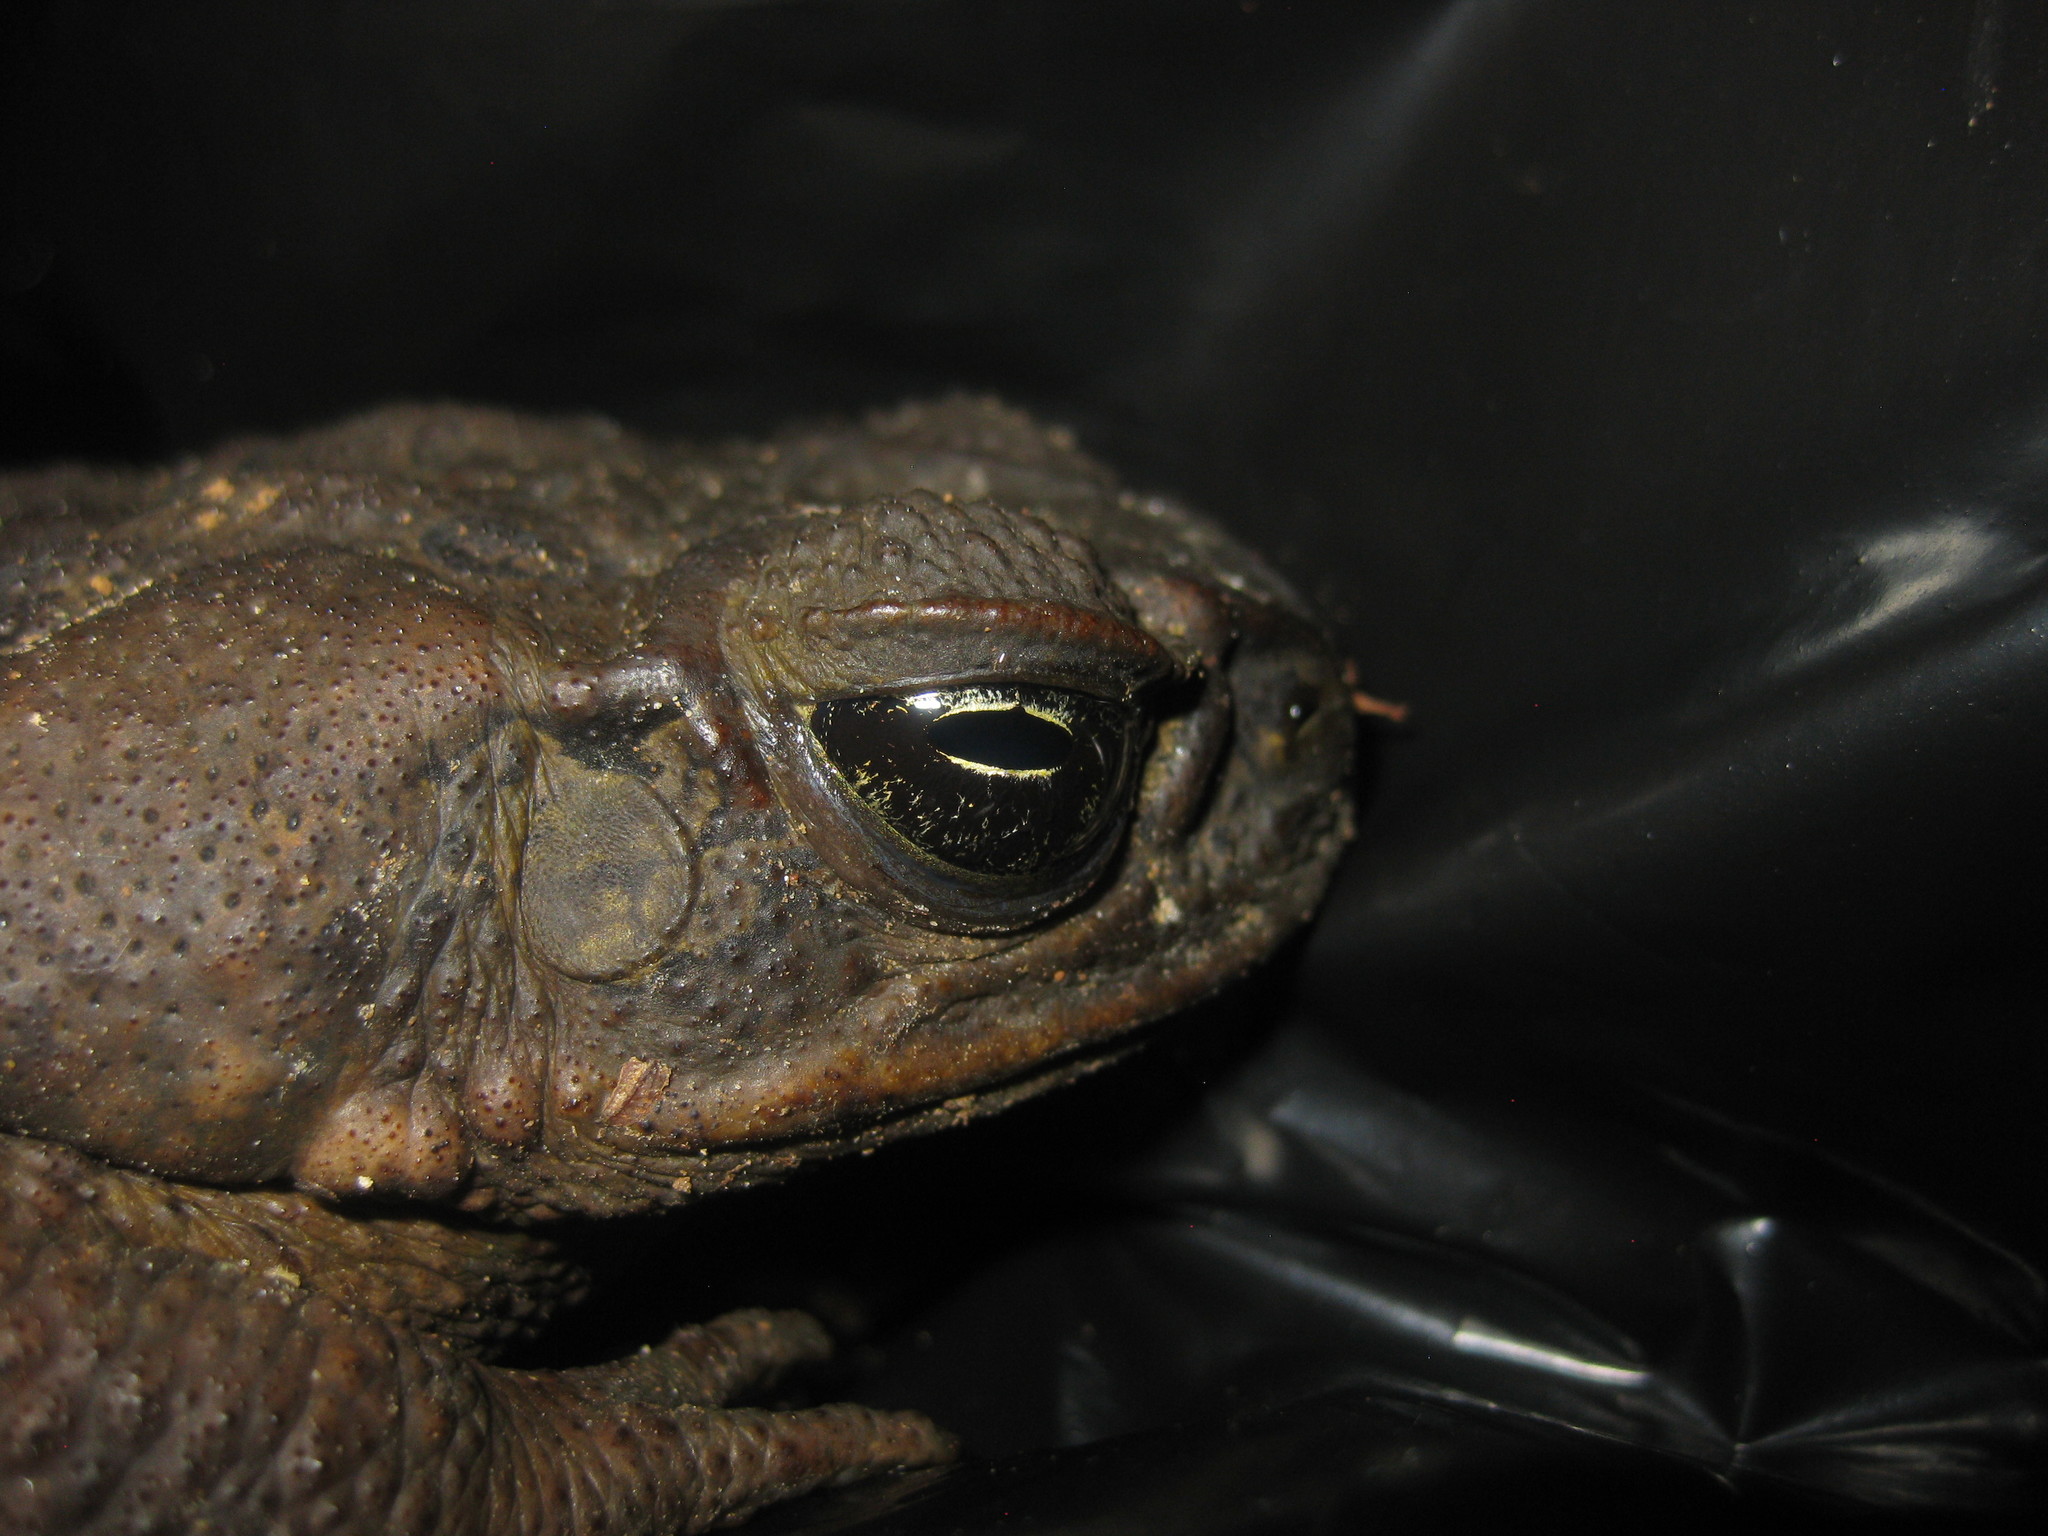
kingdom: Animalia
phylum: Chordata
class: Amphibia
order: Anura
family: Bufonidae
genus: Rhinella
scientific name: Rhinella marina
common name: Cane toad
